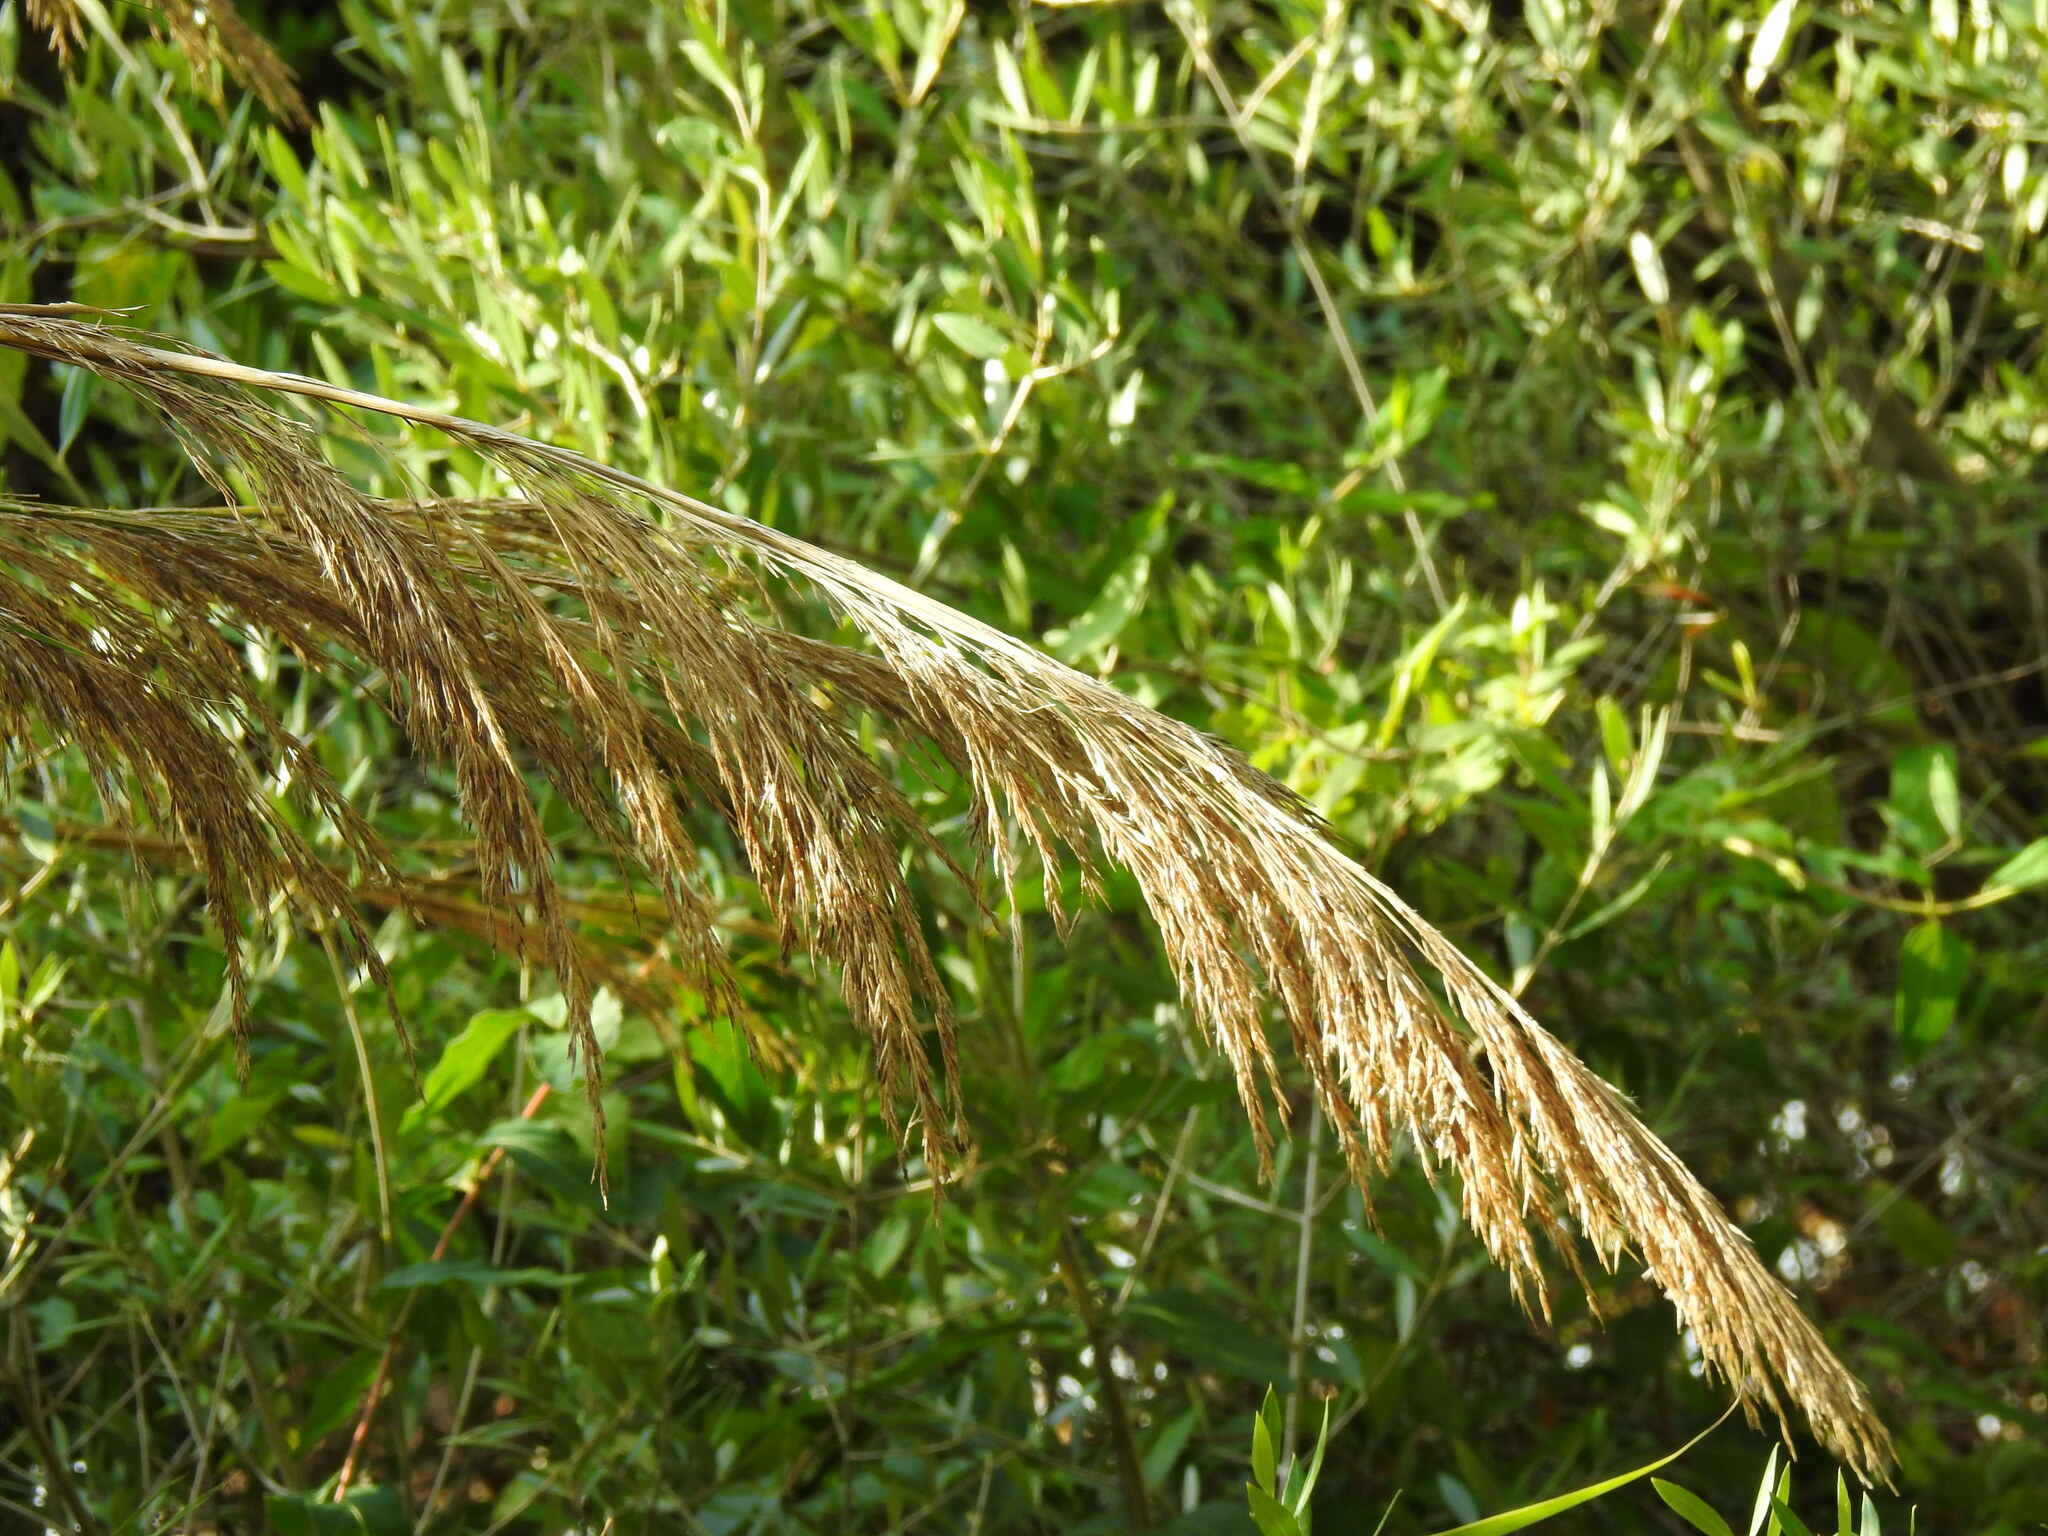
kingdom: Plantae
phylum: Tracheophyta
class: Liliopsida
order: Poales
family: Poaceae
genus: Arundo
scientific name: Arundo donax
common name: Giant reed
